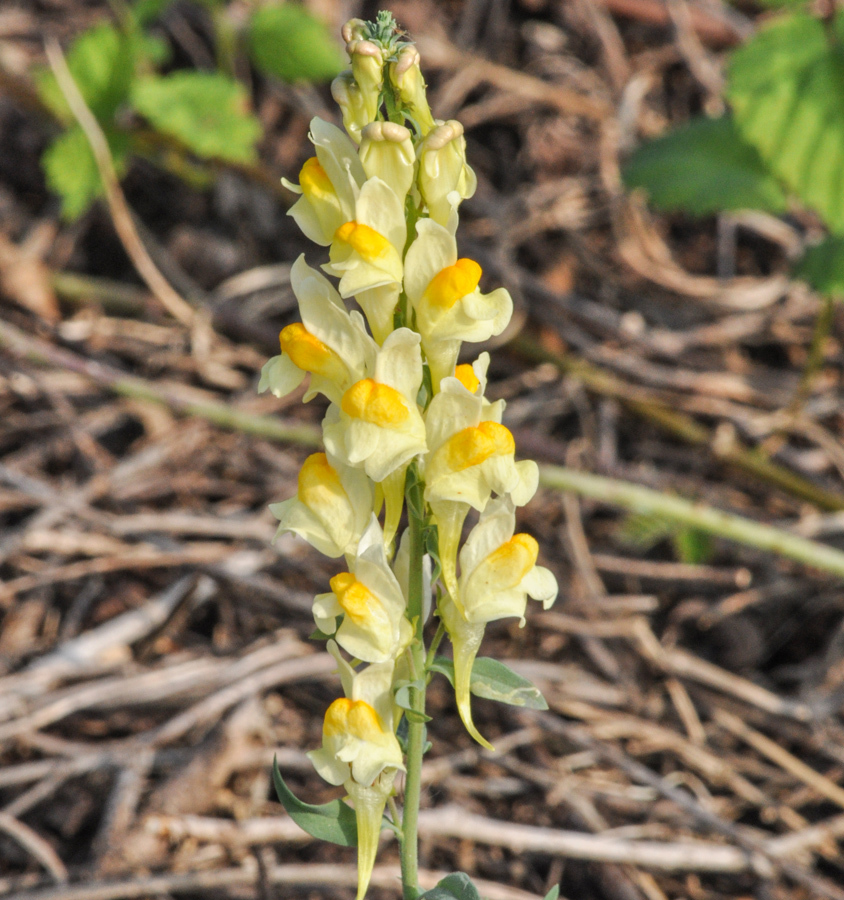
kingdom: Plantae
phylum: Tracheophyta
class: Magnoliopsida
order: Lamiales
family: Plantaginaceae
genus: Linaria
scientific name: Linaria vulgaris
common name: Butter and eggs
